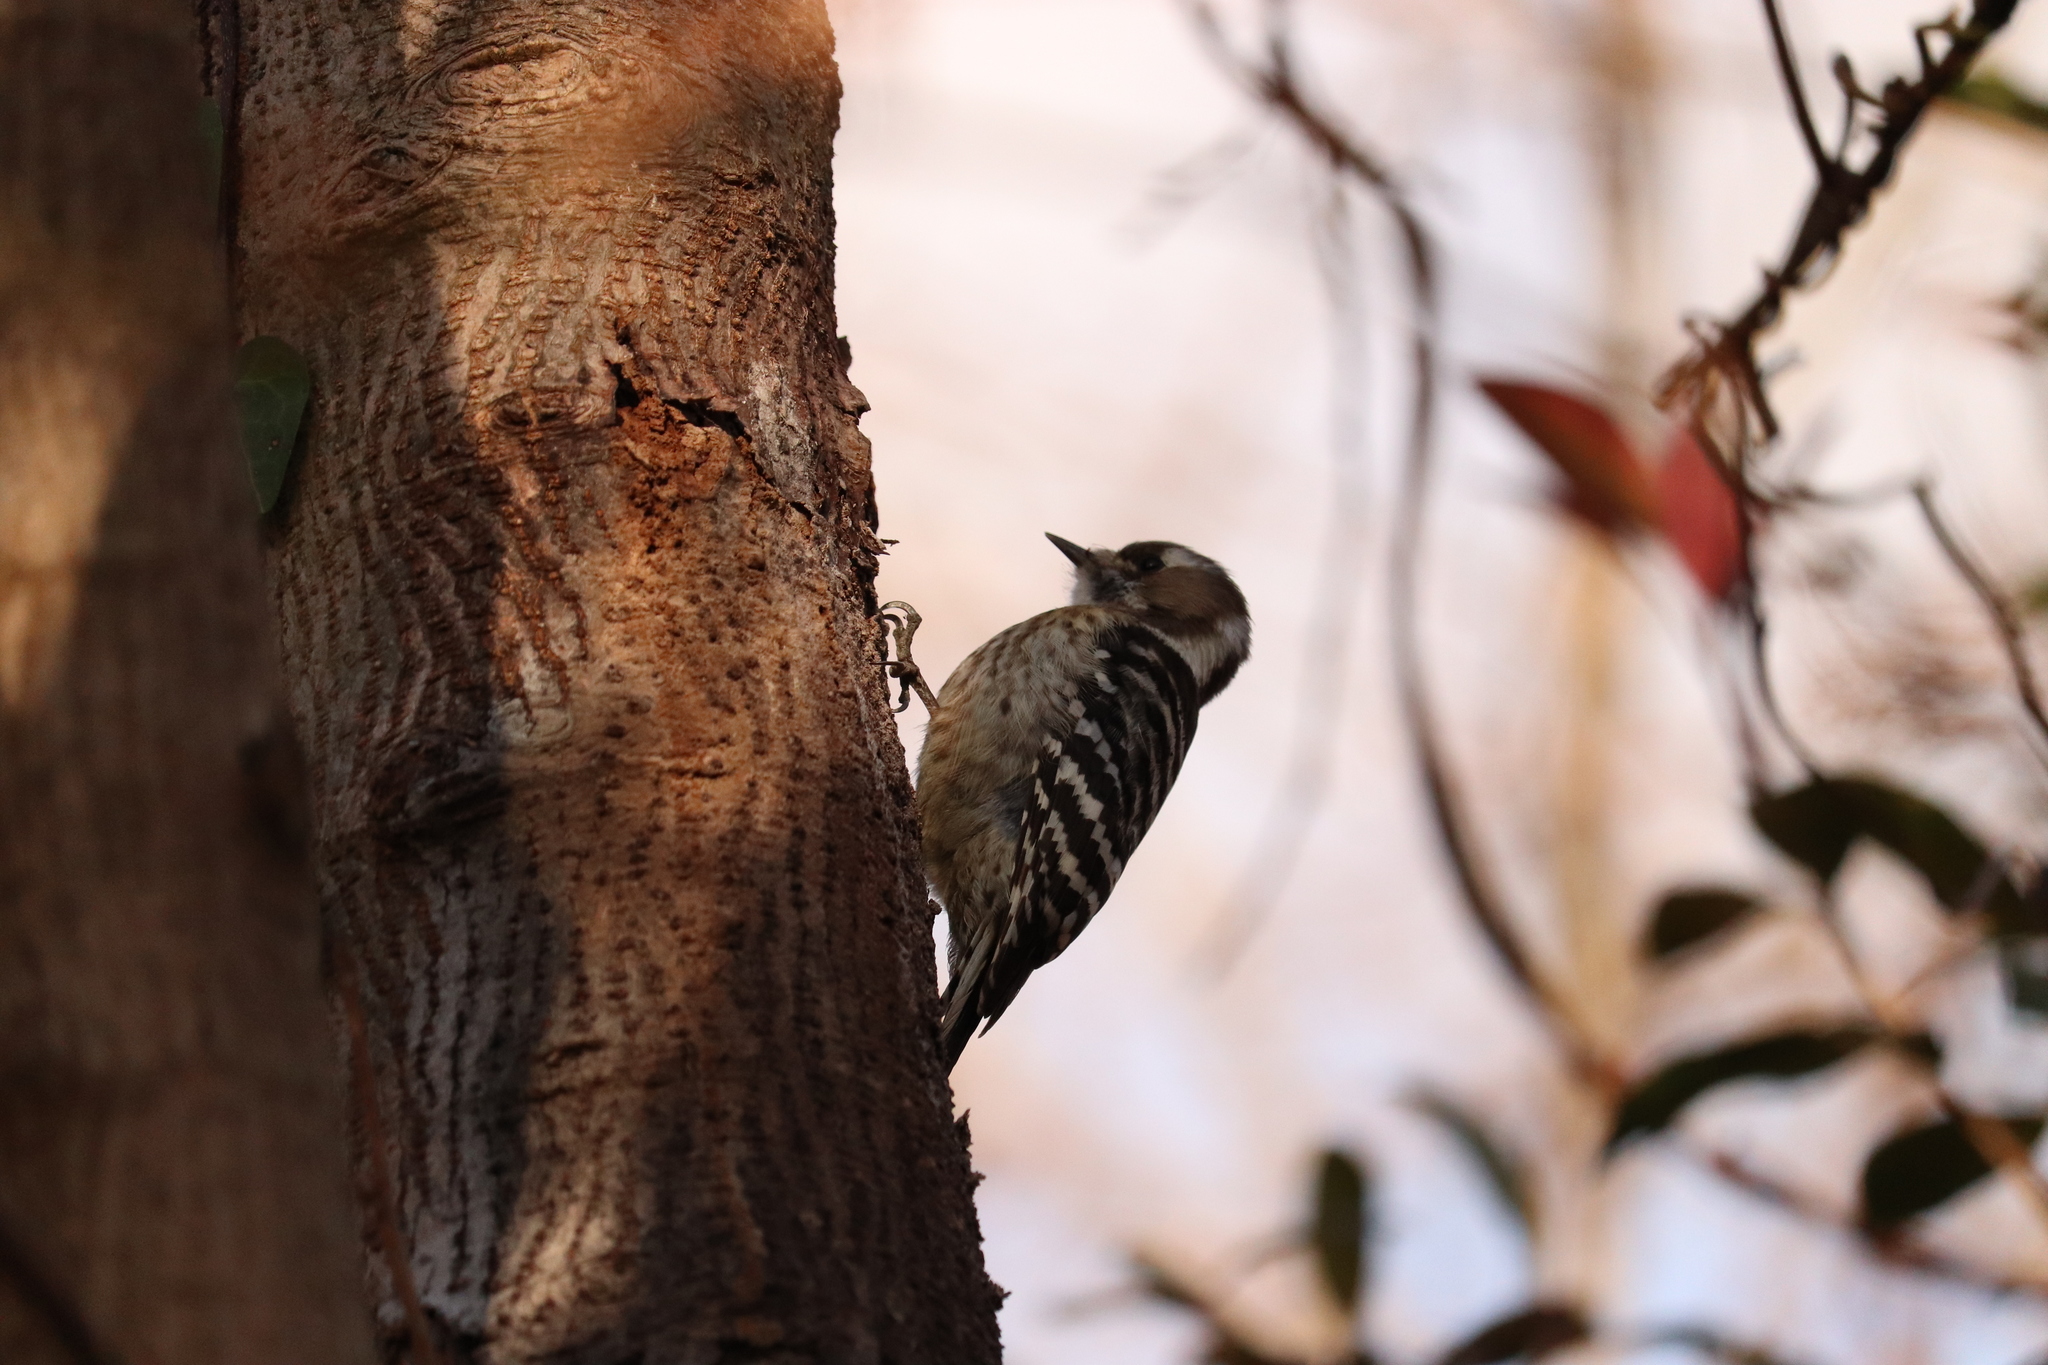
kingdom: Animalia
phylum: Chordata
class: Aves
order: Piciformes
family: Picidae
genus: Yungipicus
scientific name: Yungipicus kizuki
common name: Japanese pygmy woodpecker
